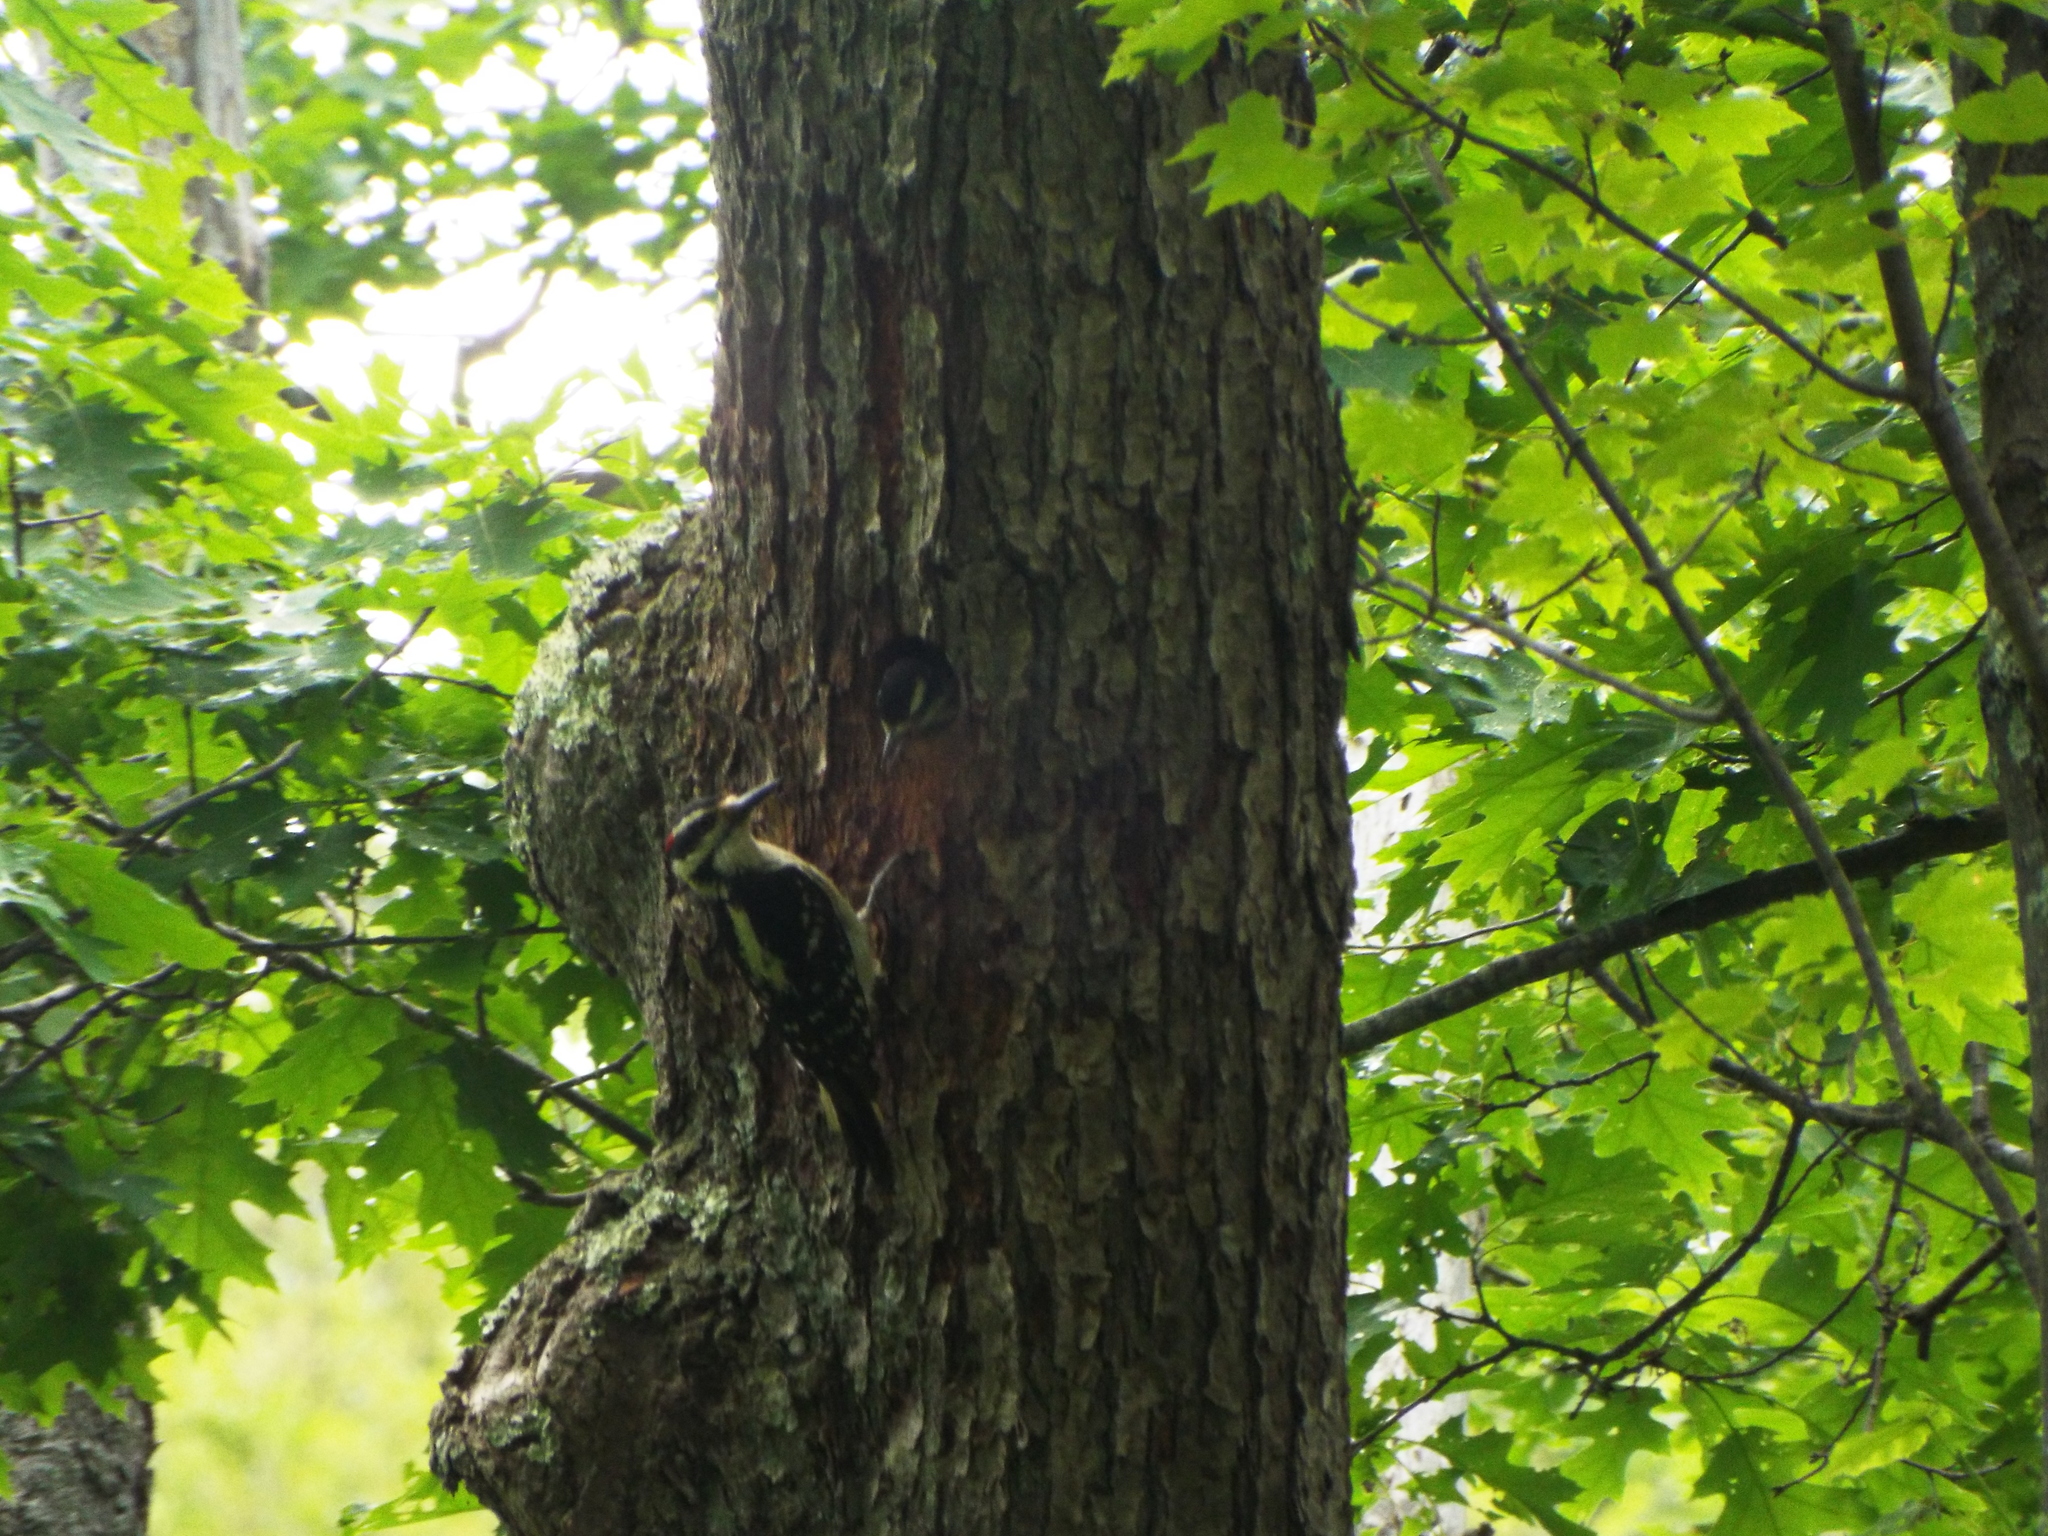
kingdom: Animalia
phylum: Chordata
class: Aves
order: Piciformes
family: Picidae
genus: Leuconotopicus
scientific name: Leuconotopicus villosus
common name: Hairy woodpecker
